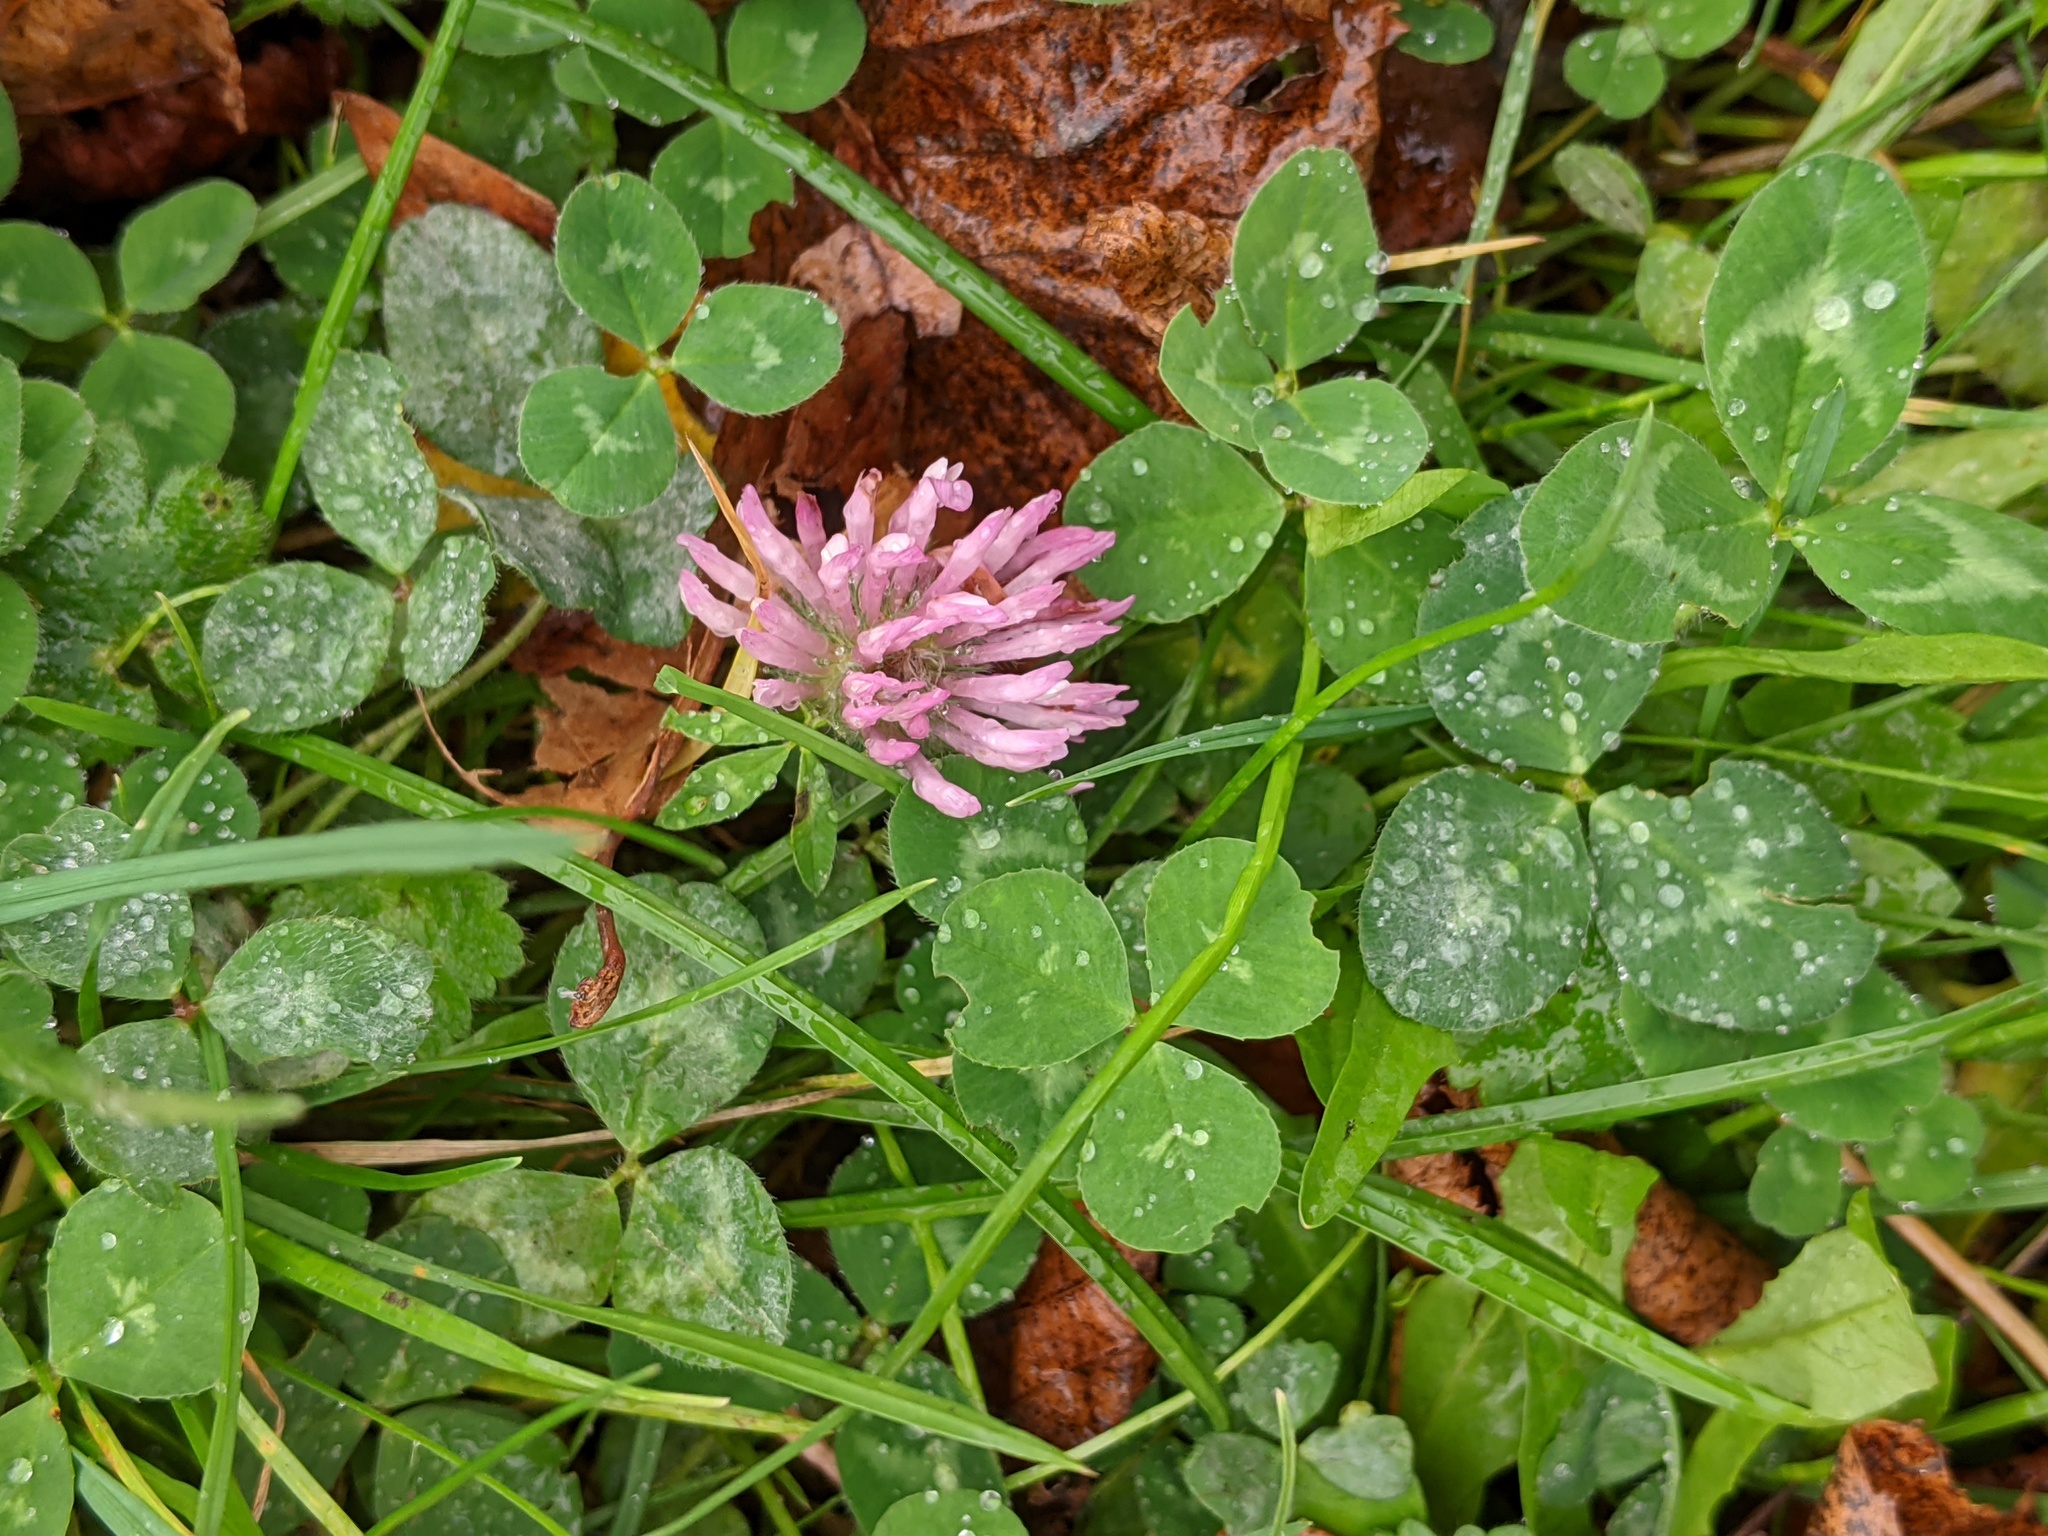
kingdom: Plantae
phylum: Tracheophyta
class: Magnoliopsida
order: Fabales
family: Fabaceae
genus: Trifolium
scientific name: Trifolium pratense
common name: Red clover
